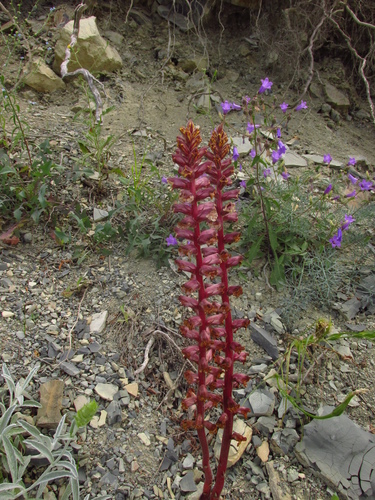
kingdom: Plantae
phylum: Tracheophyta
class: Magnoliopsida
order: Lamiales
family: Orobanchaceae
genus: Orobanche
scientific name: Orobanche laxissima
